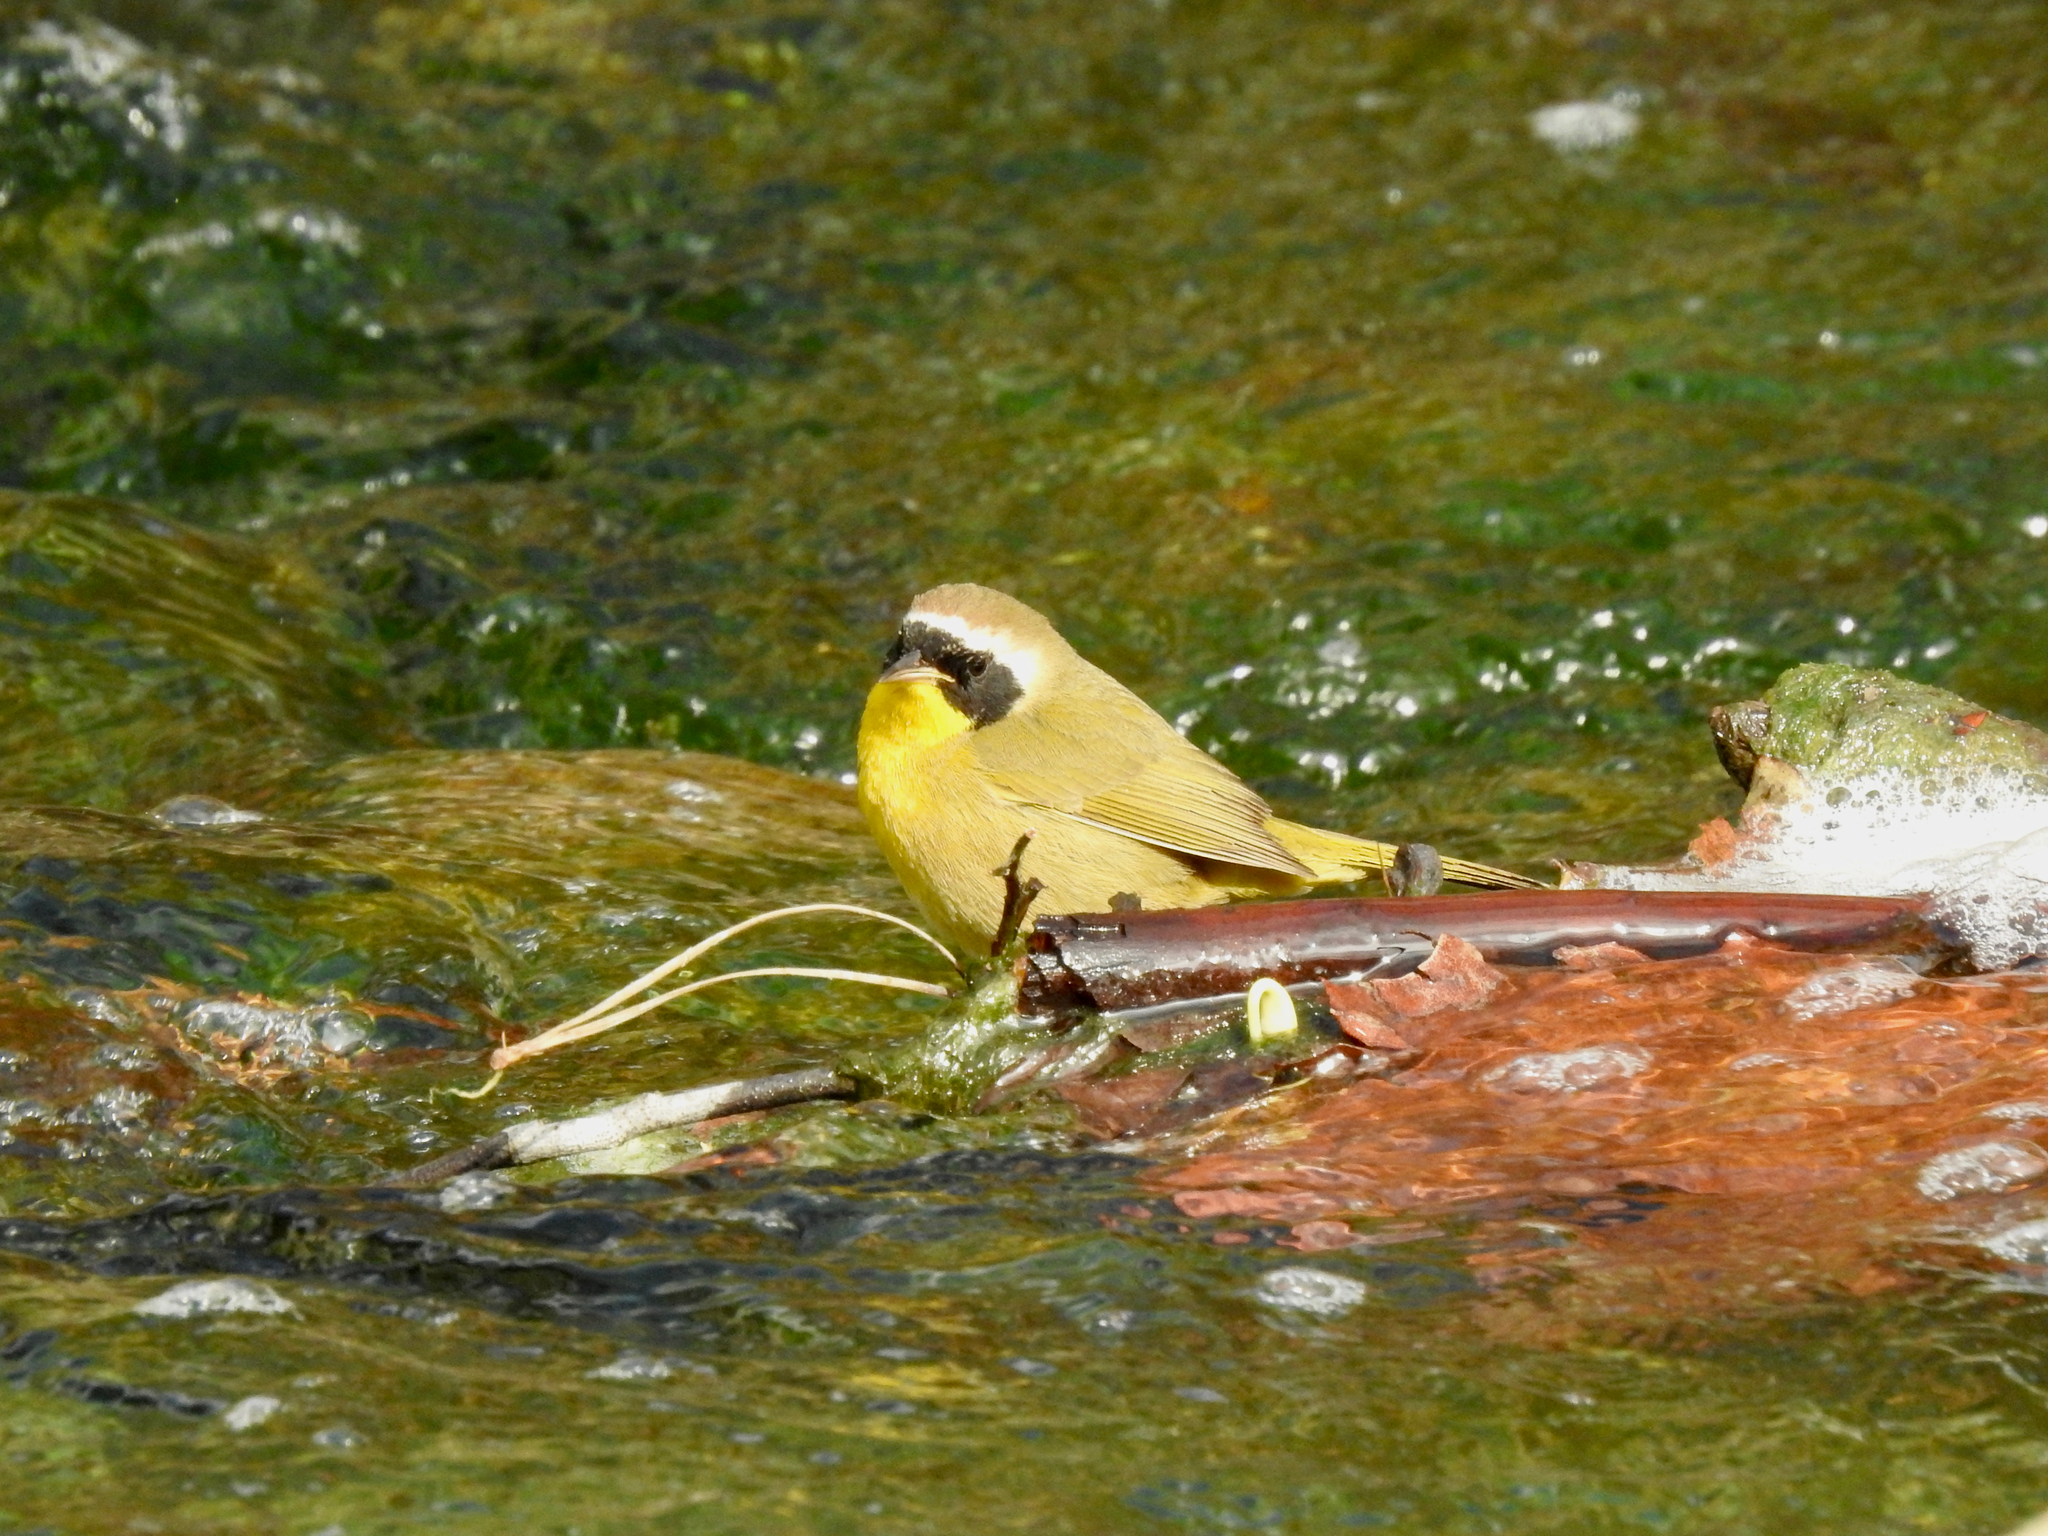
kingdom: Animalia
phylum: Chordata
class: Aves
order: Passeriformes
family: Parulidae
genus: Geothlypis
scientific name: Geothlypis trichas
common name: Common yellowthroat
